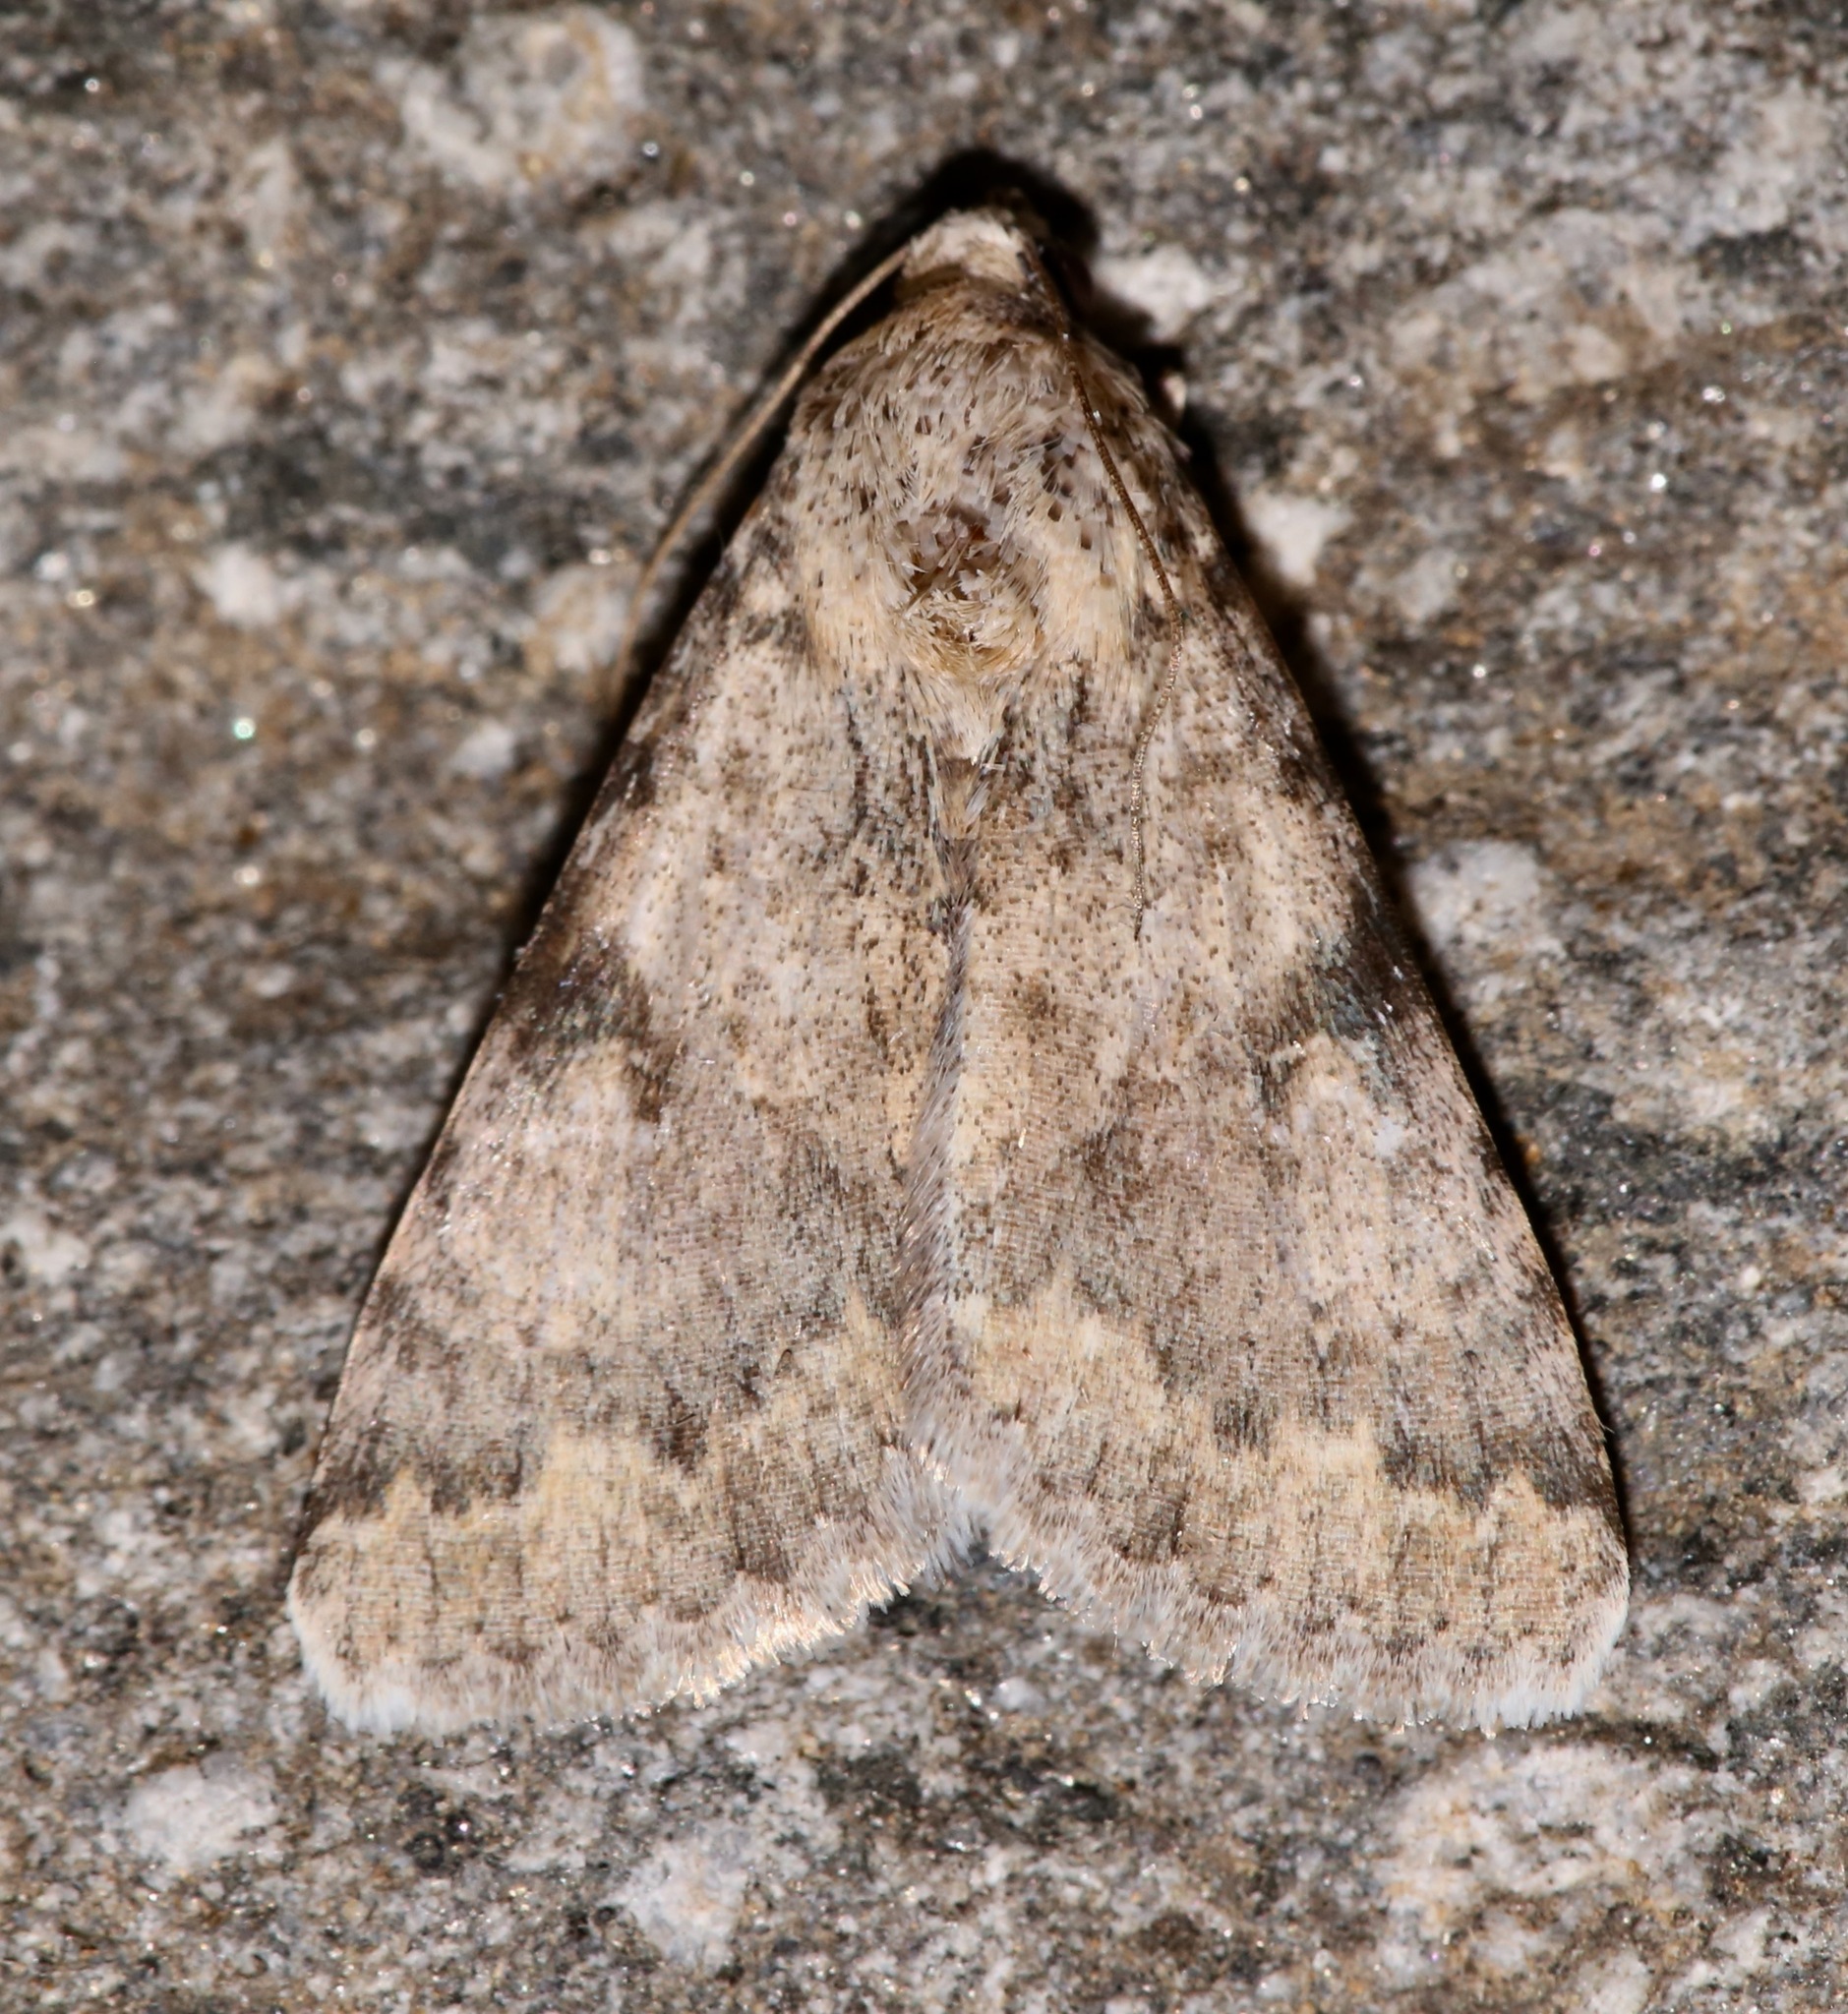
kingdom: Animalia
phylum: Arthropoda
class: Insecta
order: Lepidoptera
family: Erebidae
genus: Melipotis
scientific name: Melipotis jucunda
